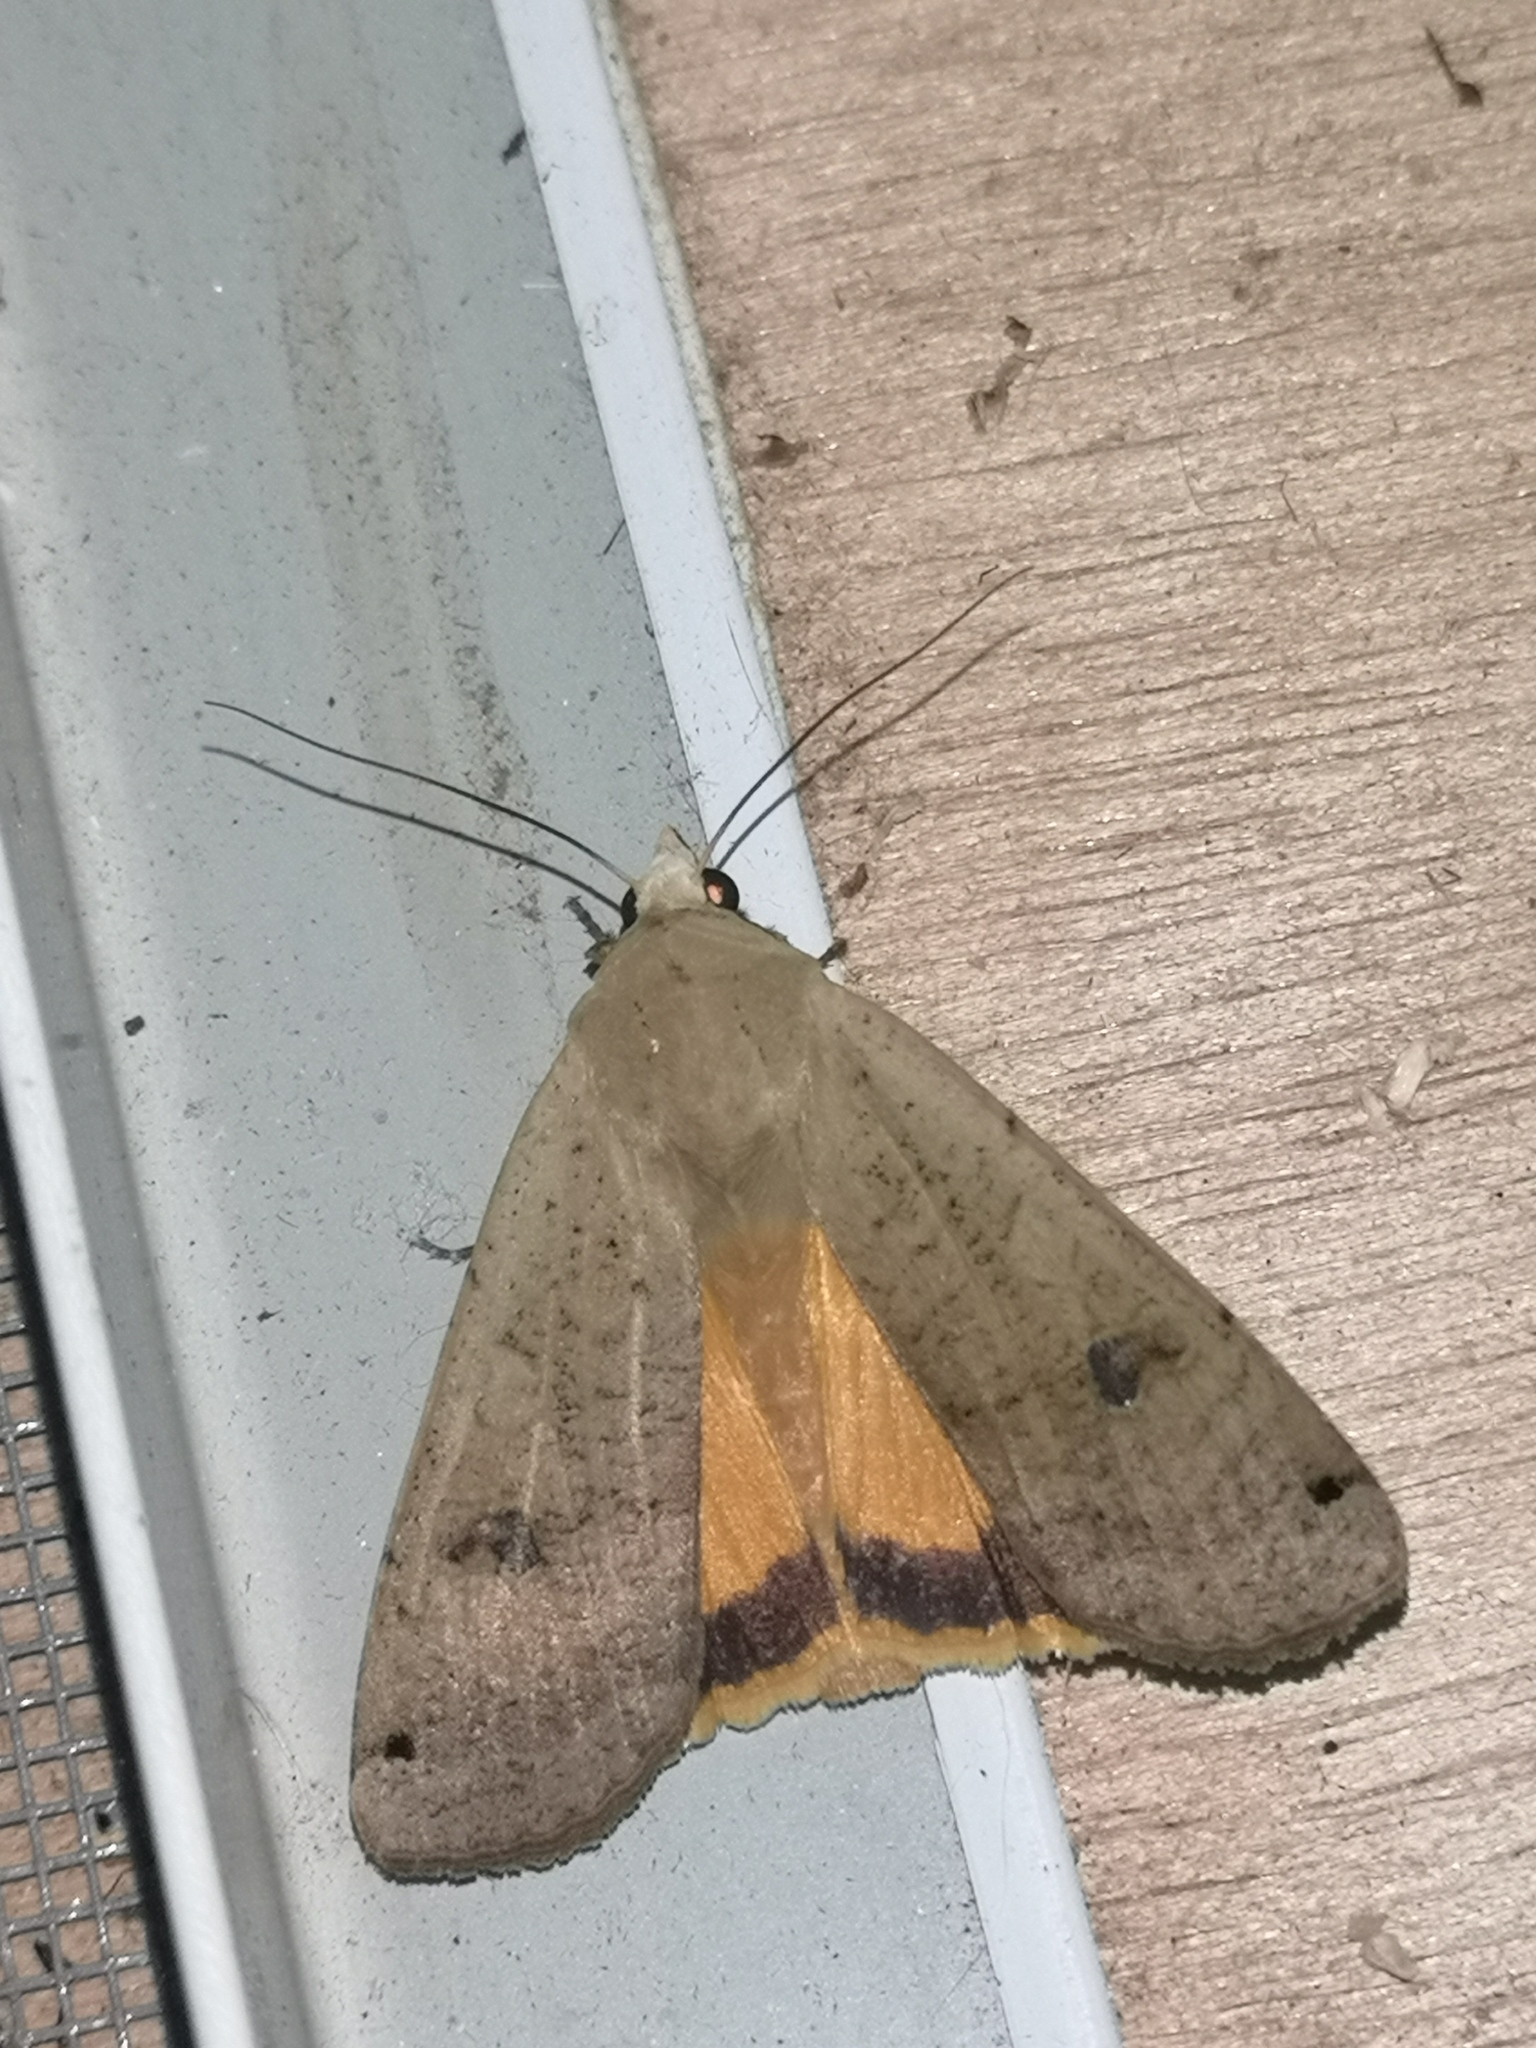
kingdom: Animalia
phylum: Arthropoda
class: Insecta
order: Lepidoptera
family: Noctuidae
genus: Noctua
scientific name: Noctua pronuba
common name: Large yellow underwing
